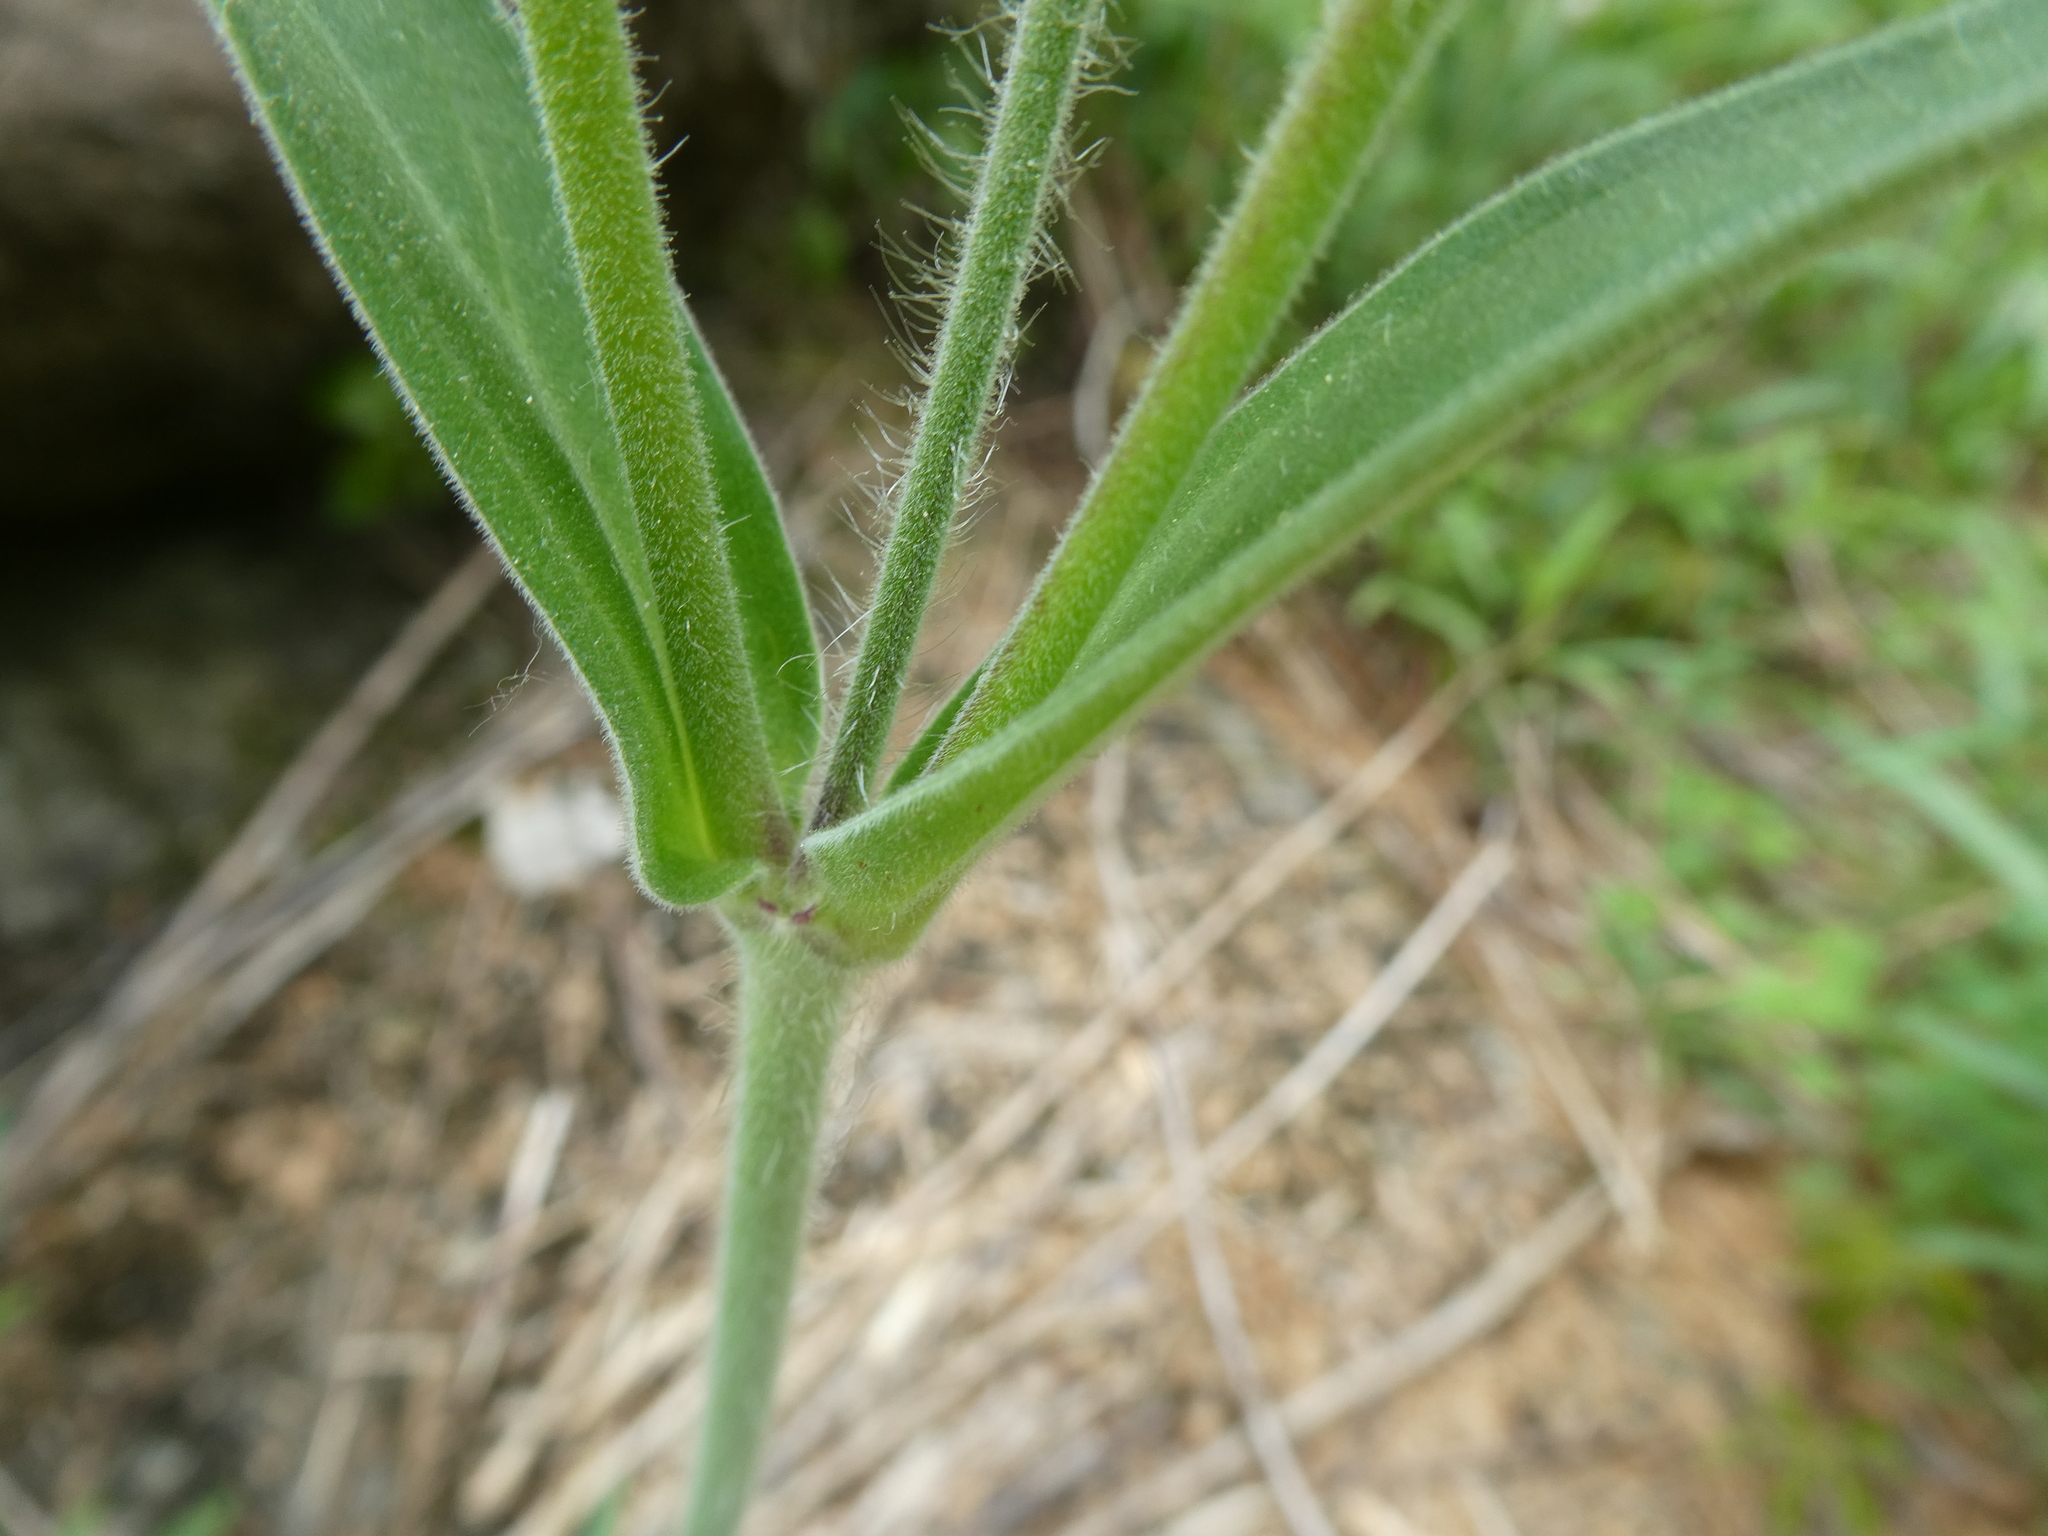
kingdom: Plantae
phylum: Tracheophyta
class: Magnoliopsida
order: Caryophyllales
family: Caryophyllaceae
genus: Silene
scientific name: Silene latifolia
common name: White campion
